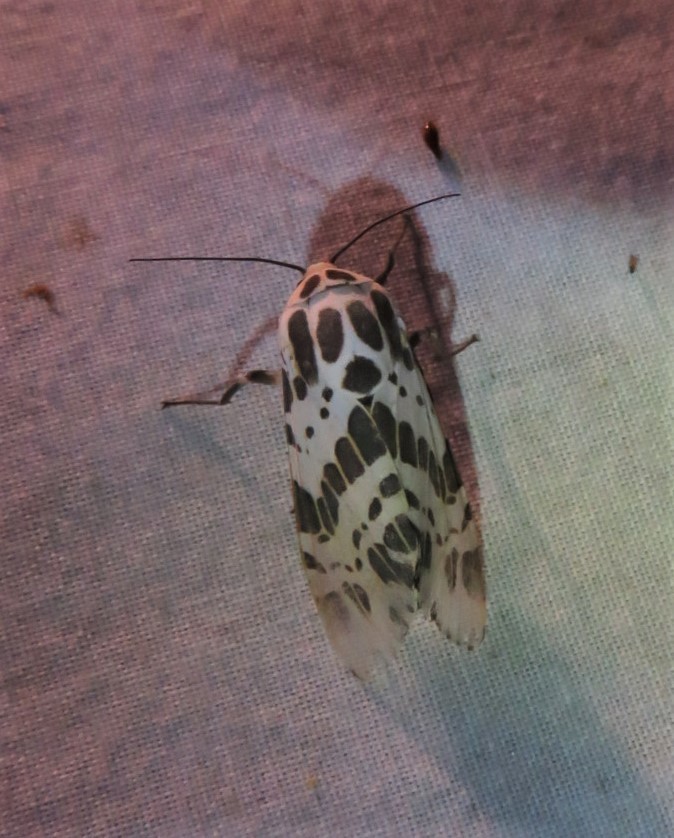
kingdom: Animalia
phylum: Arthropoda
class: Insecta
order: Lepidoptera
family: Erebidae
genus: Hypercompe
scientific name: Hypercompe laeta
